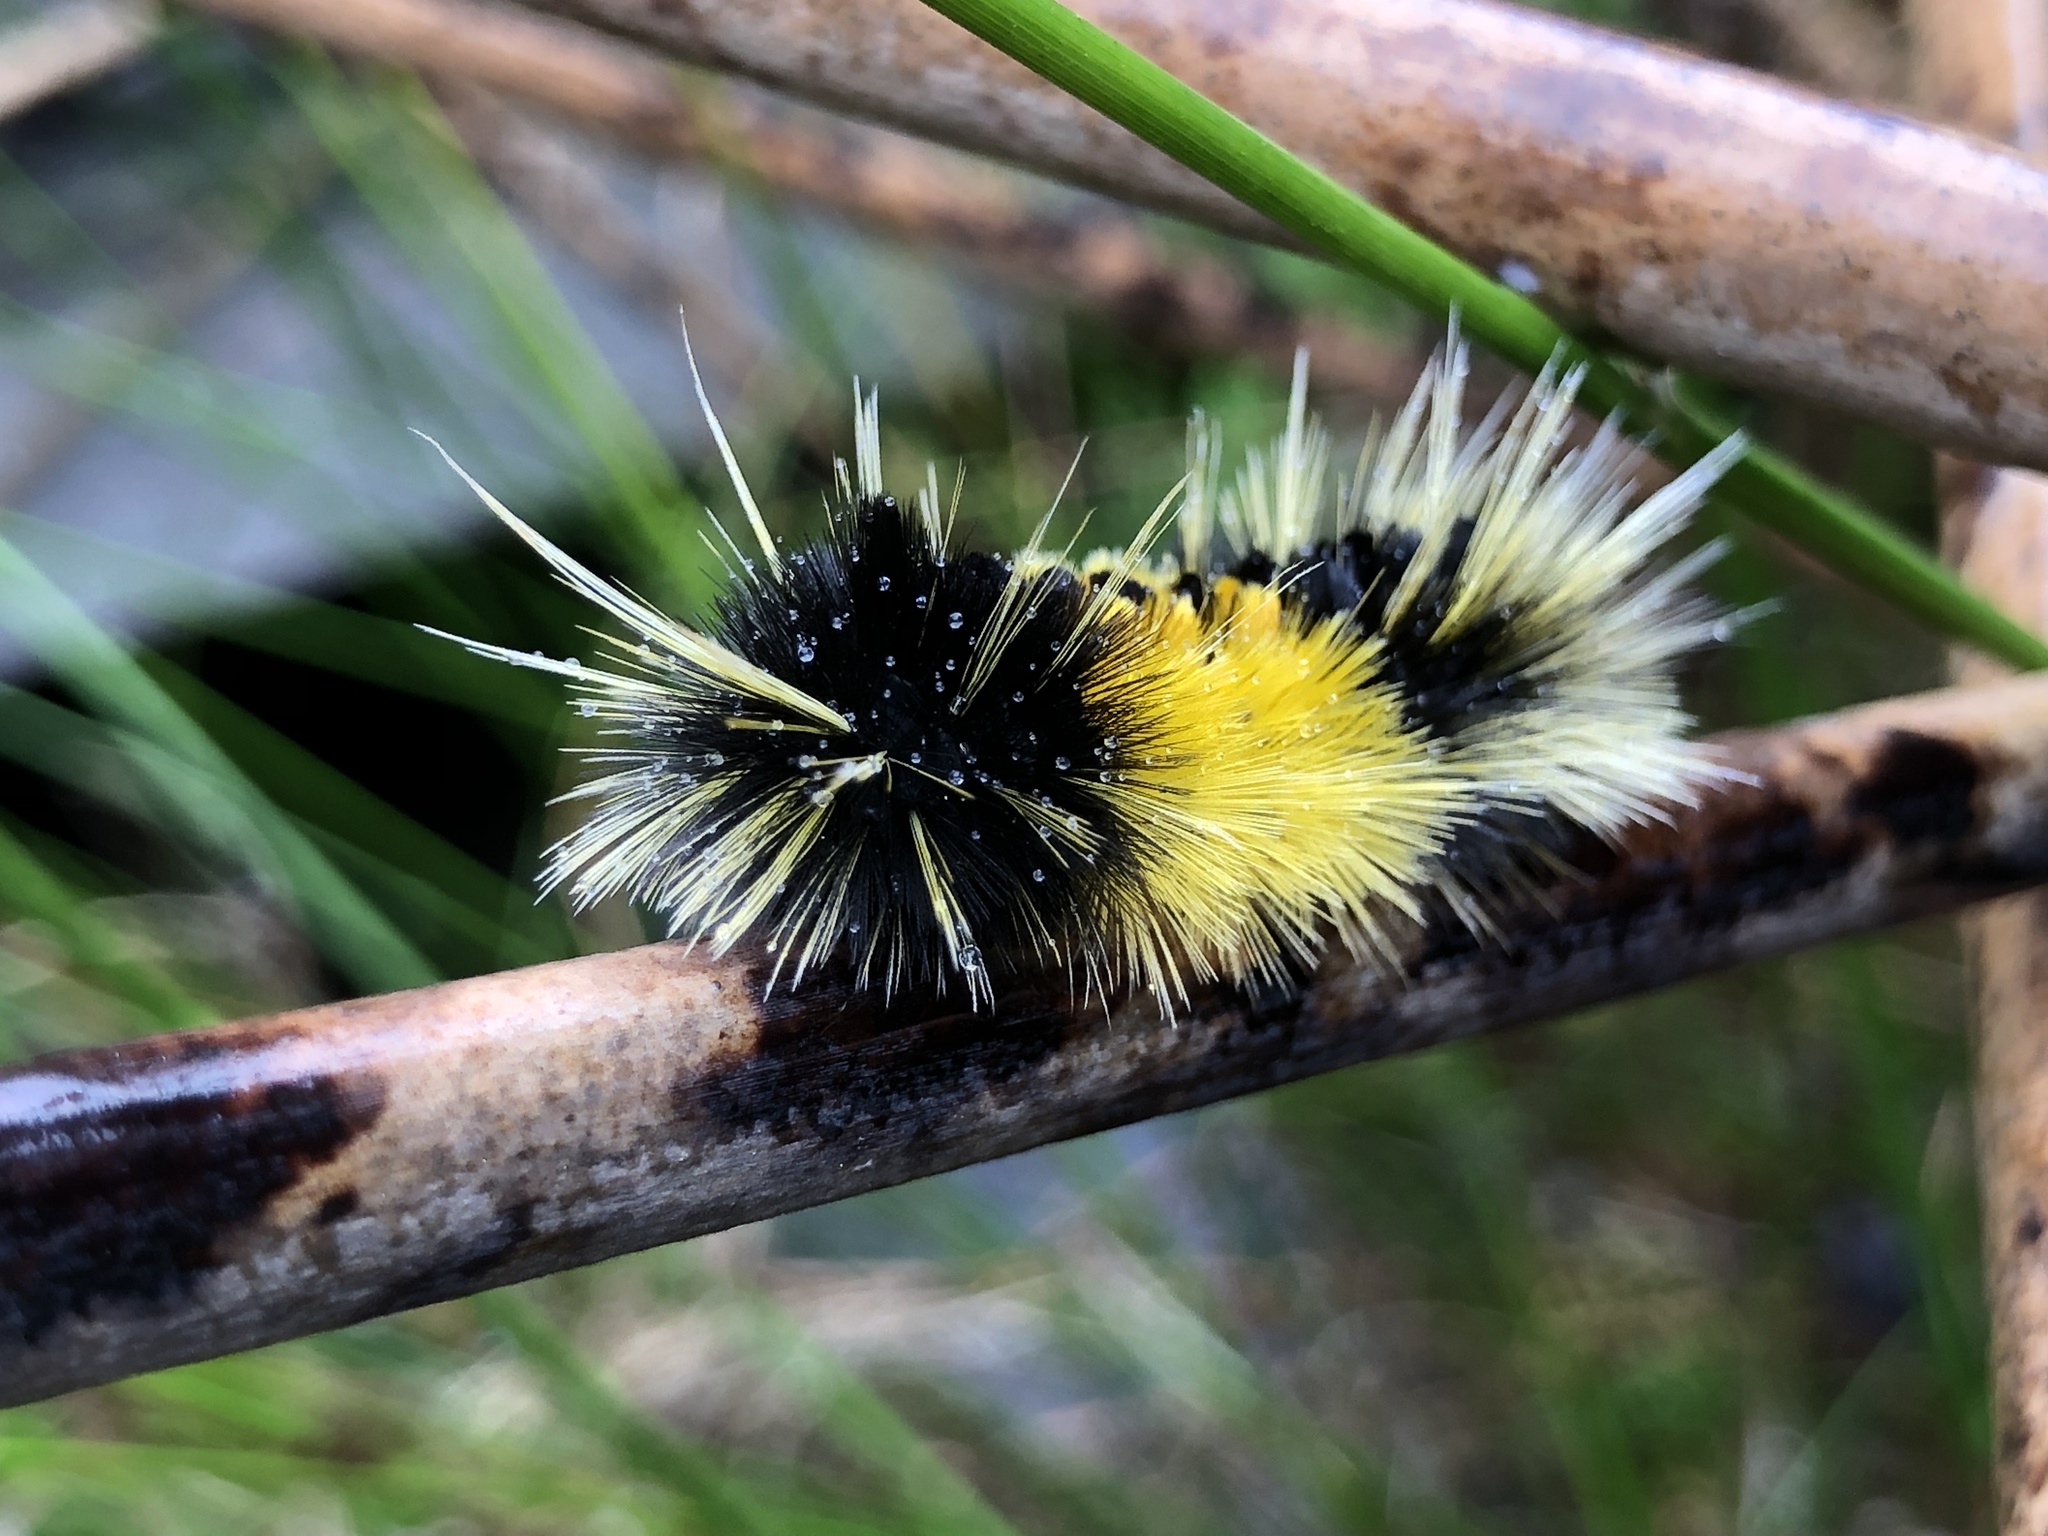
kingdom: Animalia
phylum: Arthropoda
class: Insecta
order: Lepidoptera
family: Erebidae
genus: Lophocampa
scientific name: Lophocampa maculata
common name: Spotted tussock moth
